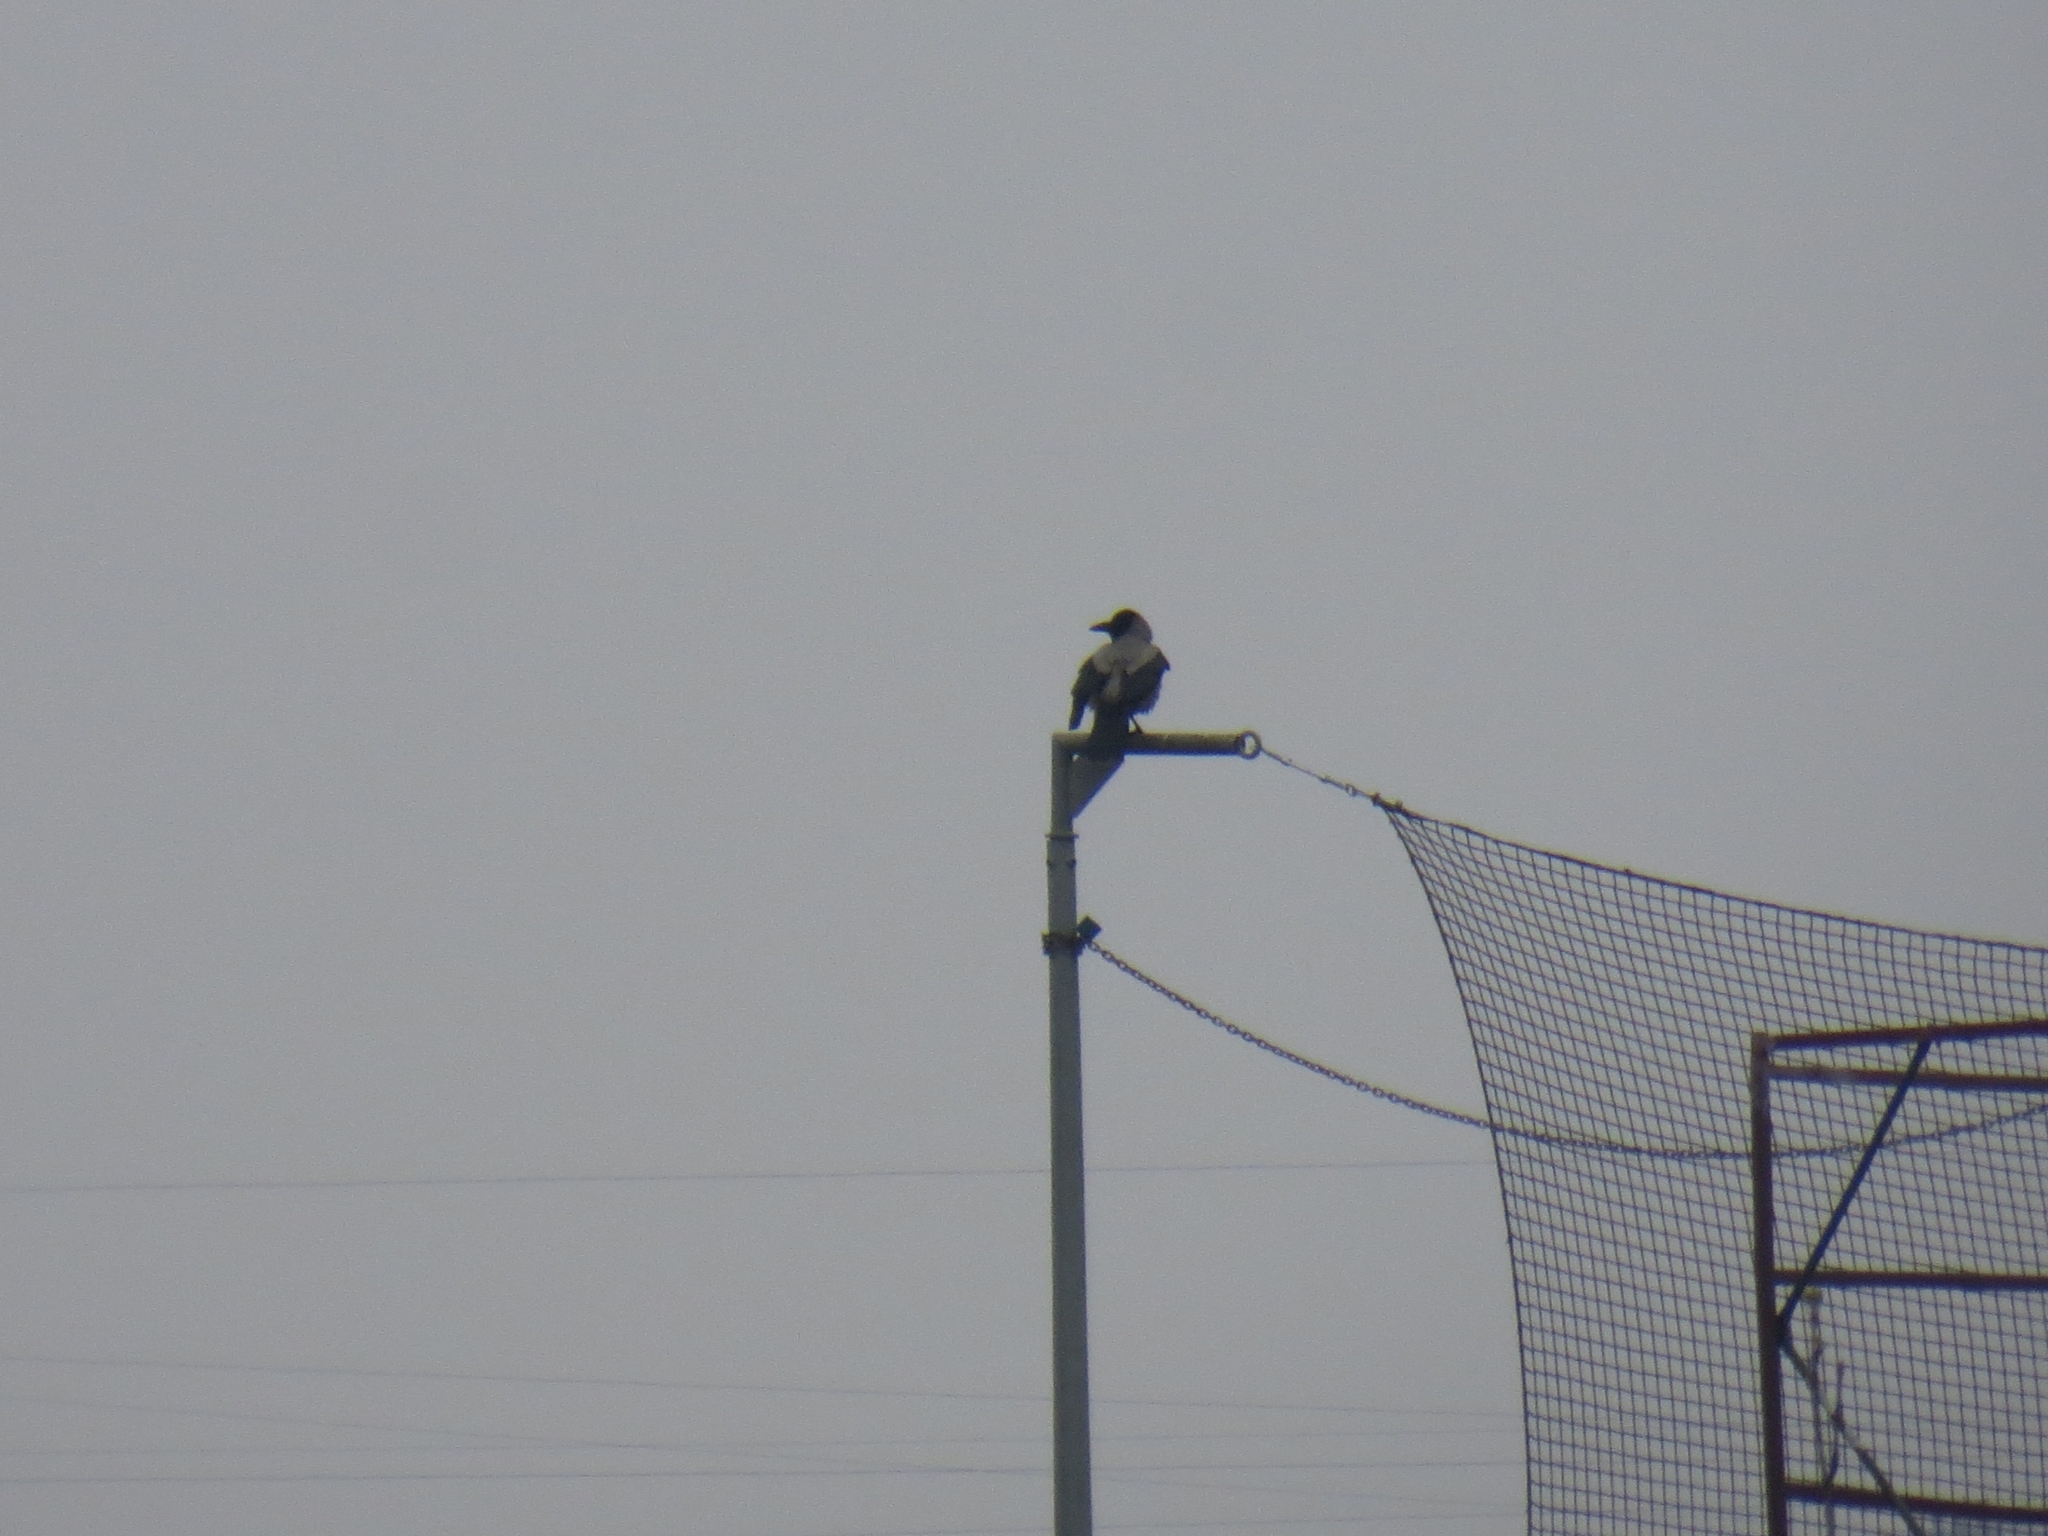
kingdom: Animalia
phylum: Chordata
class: Aves
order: Passeriformes
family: Corvidae
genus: Corvus
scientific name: Corvus cornix
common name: Hooded crow
